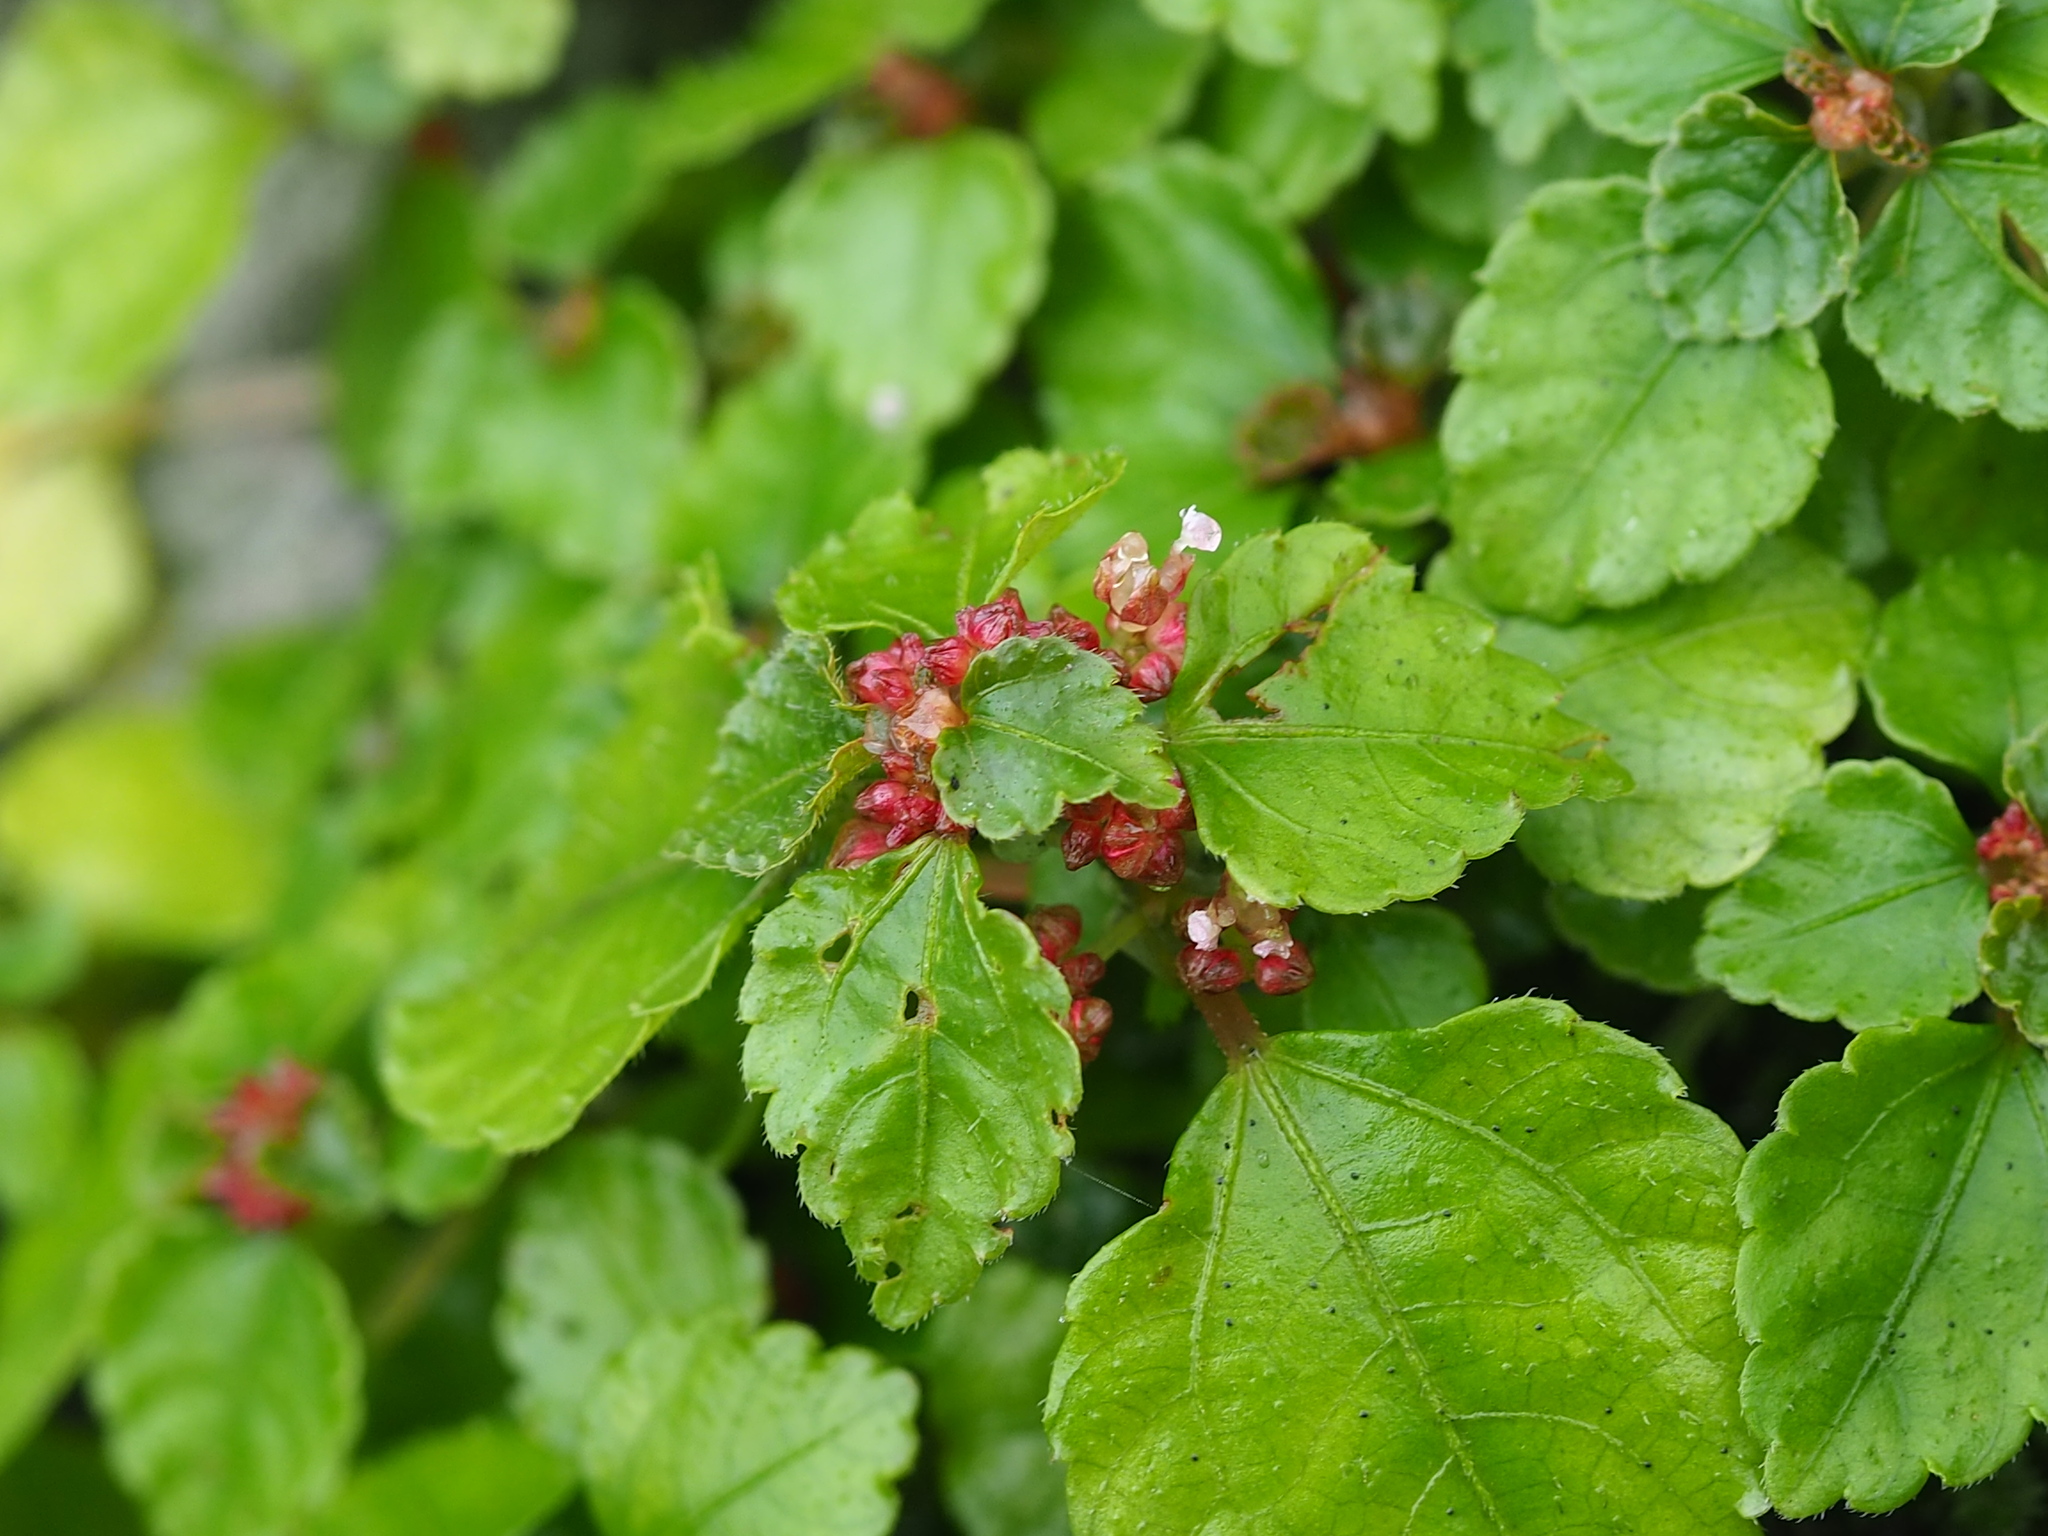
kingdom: Plantae
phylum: Tracheophyta
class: Magnoliopsida
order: Rosales
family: Urticaceae
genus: Pilea
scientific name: Pilea aquarum
